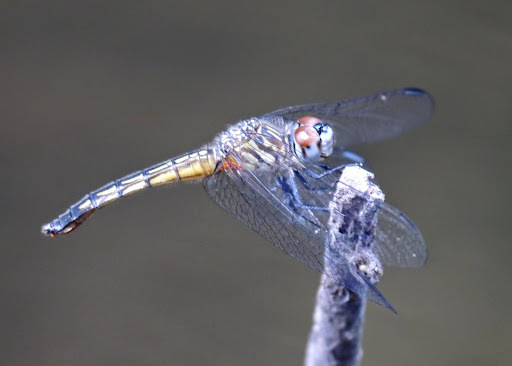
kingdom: Animalia
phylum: Arthropoda
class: Insecta
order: Odonata
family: Libellulidae
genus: Pachydiplax
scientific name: Pachydiplax longipennis
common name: Blue dasher
